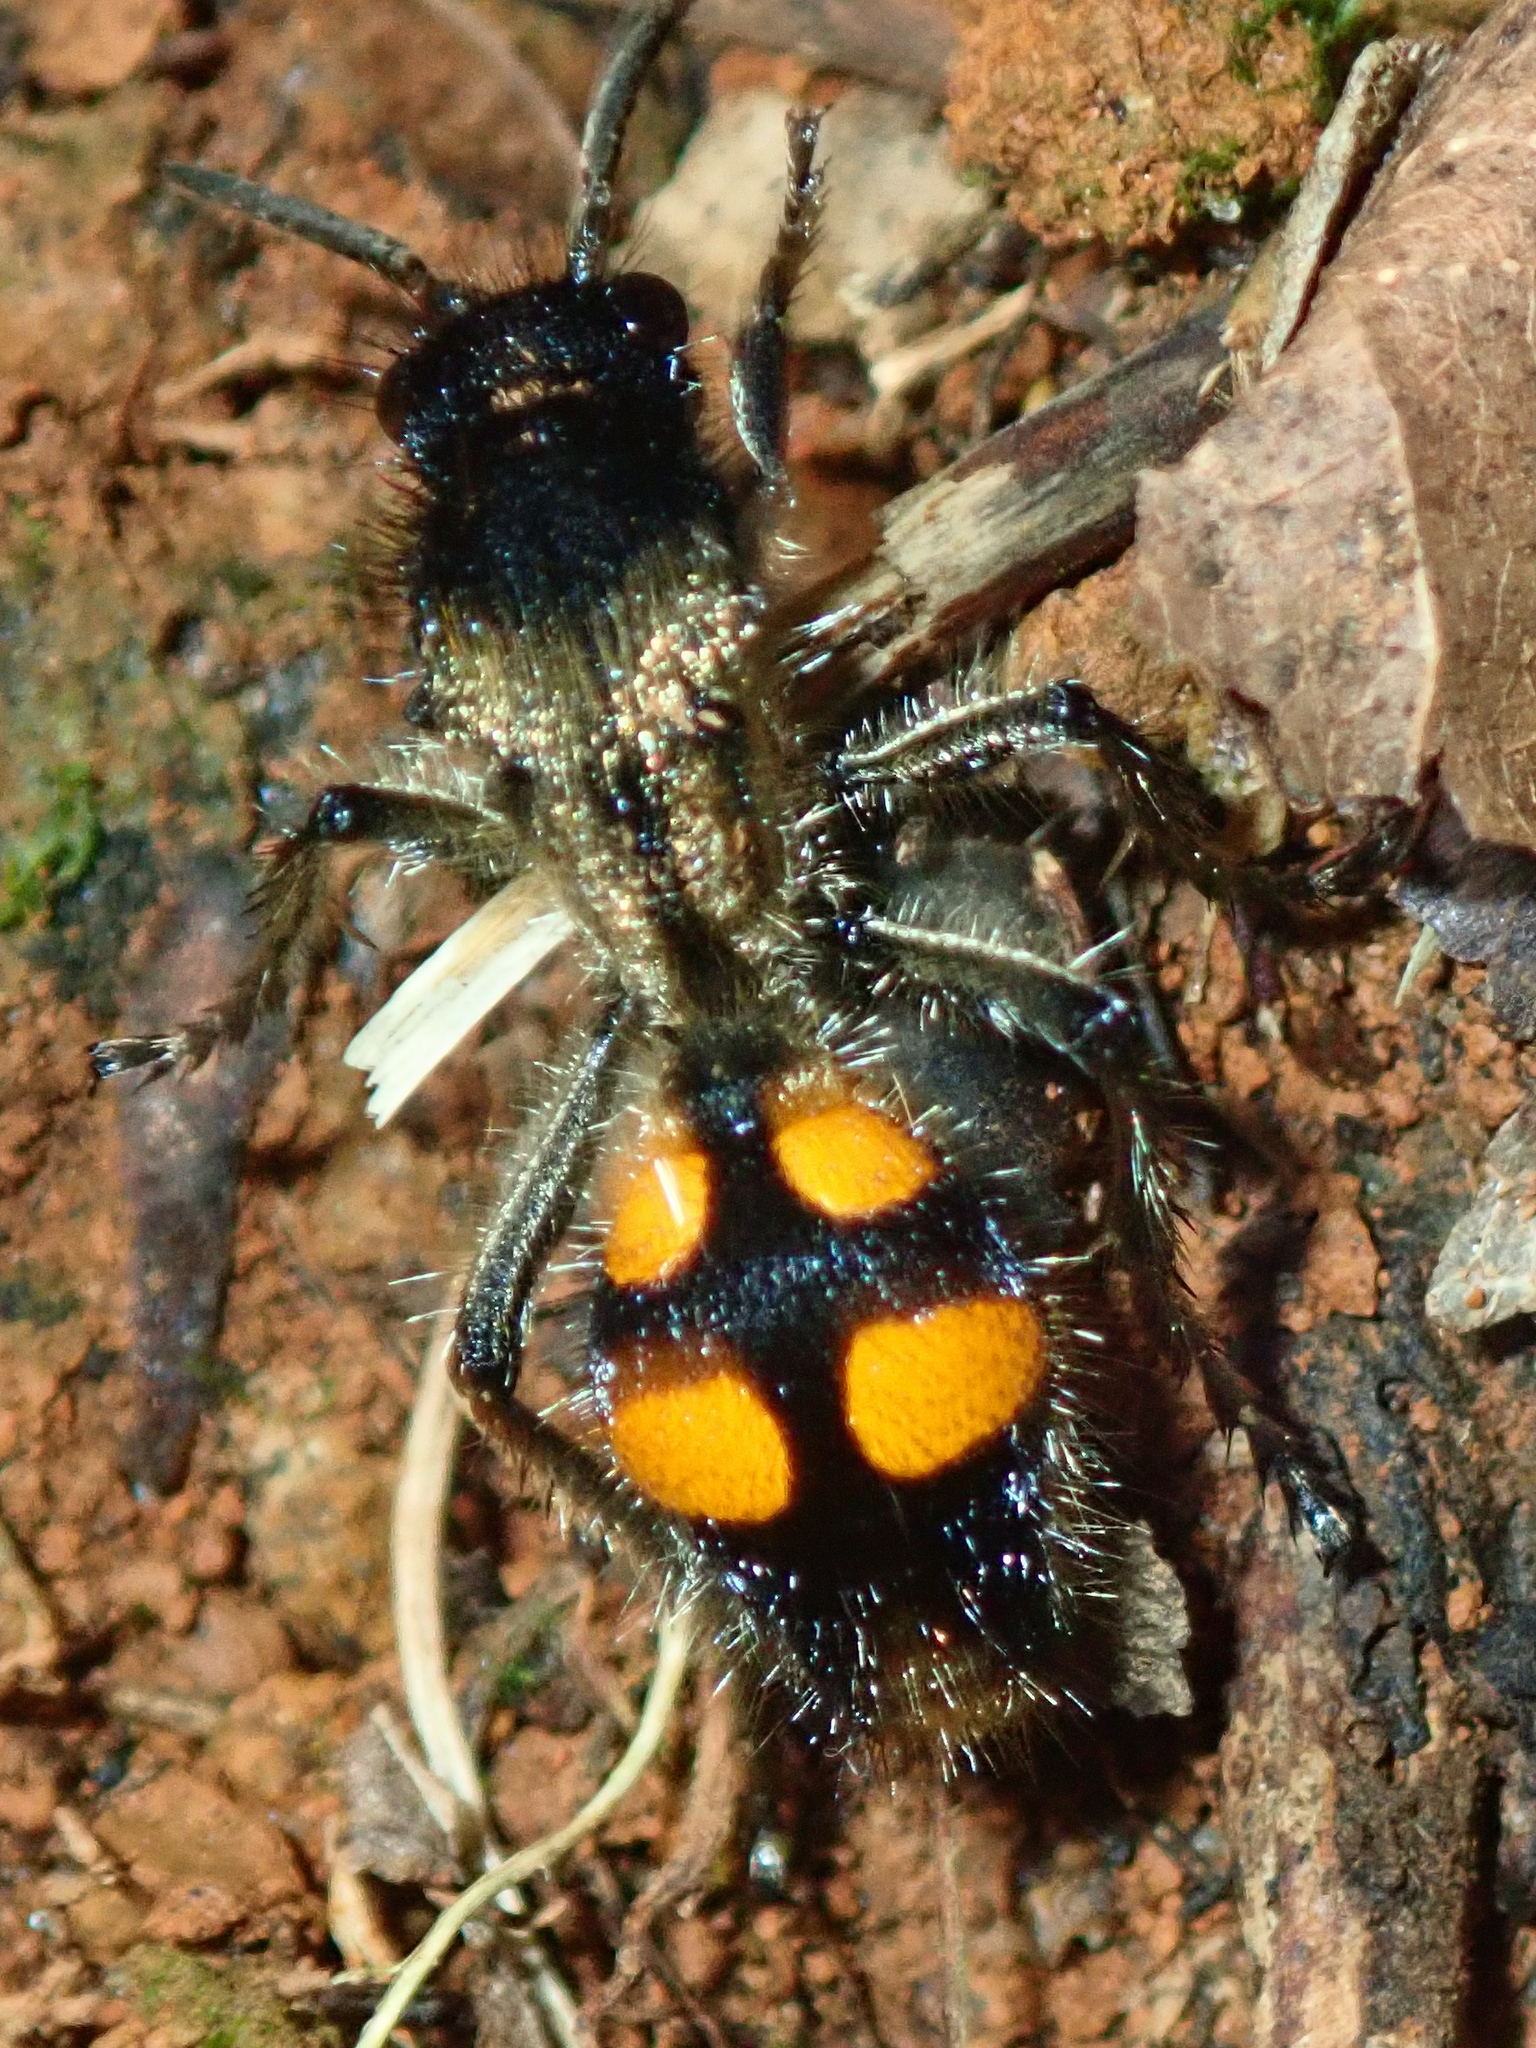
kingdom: Animalia
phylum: Arthropoda
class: Insecta
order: Hymenoptera
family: Mutillidae
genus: Traumatomutilla
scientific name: Traumatomutilla
